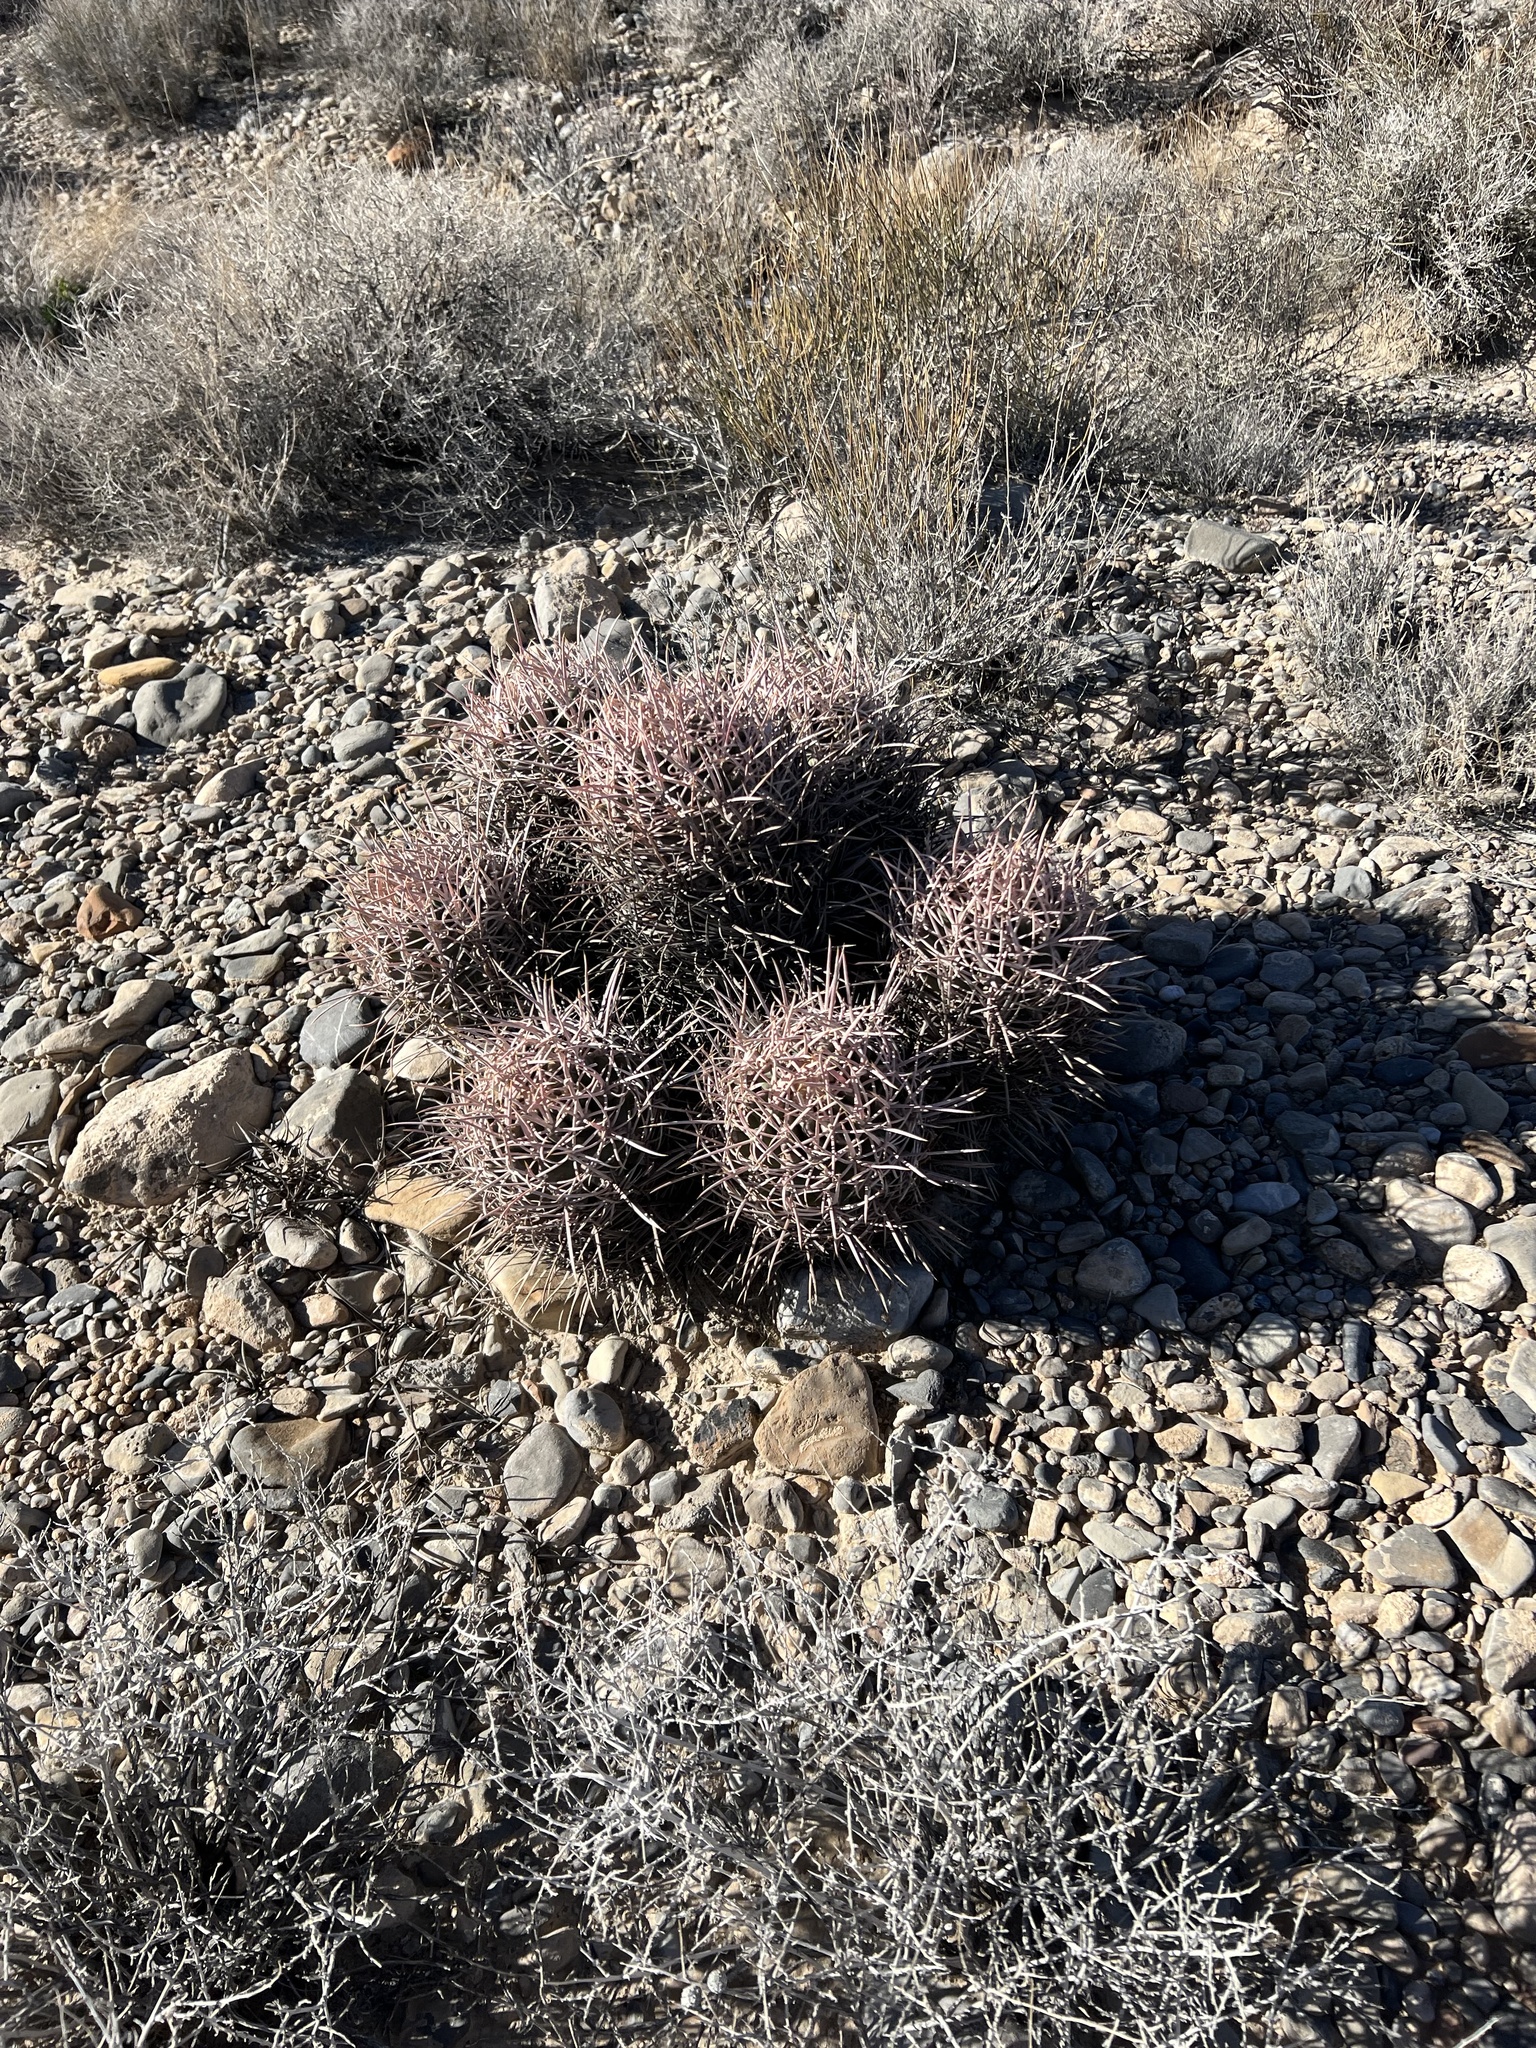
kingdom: Plantae
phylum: Tracheophyta
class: Magnoliopsida
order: Caryophyllales
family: Cactaceae
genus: Echinocactus
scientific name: Echinocactus polycephalus
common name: Cottontop cactus
